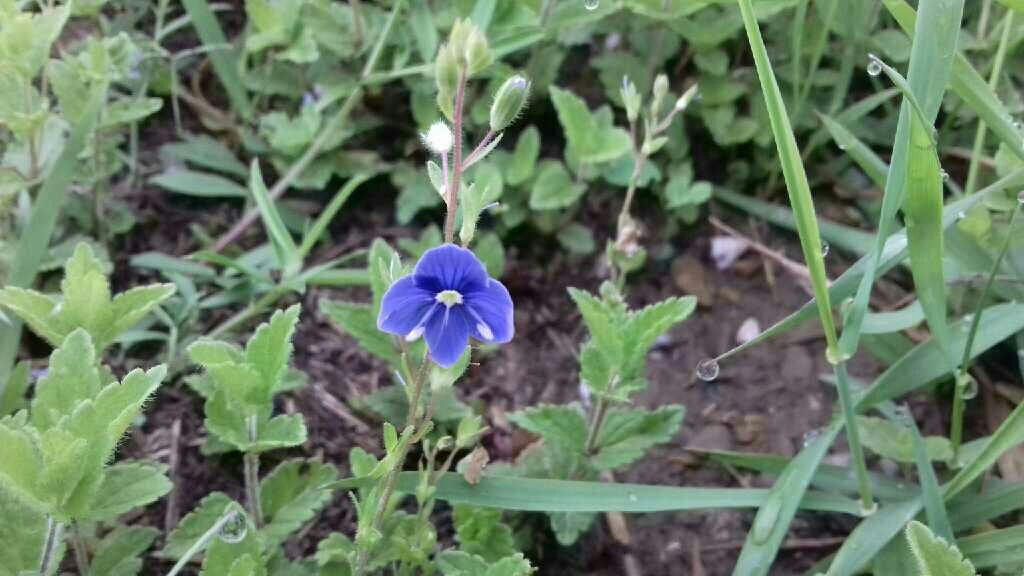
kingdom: Plantae
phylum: Tracheophyta
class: Magnoliopsida
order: Lamiales
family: Plantaginaceae
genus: Veronica
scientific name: Veronica chamaedrys
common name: Germander speedwell
